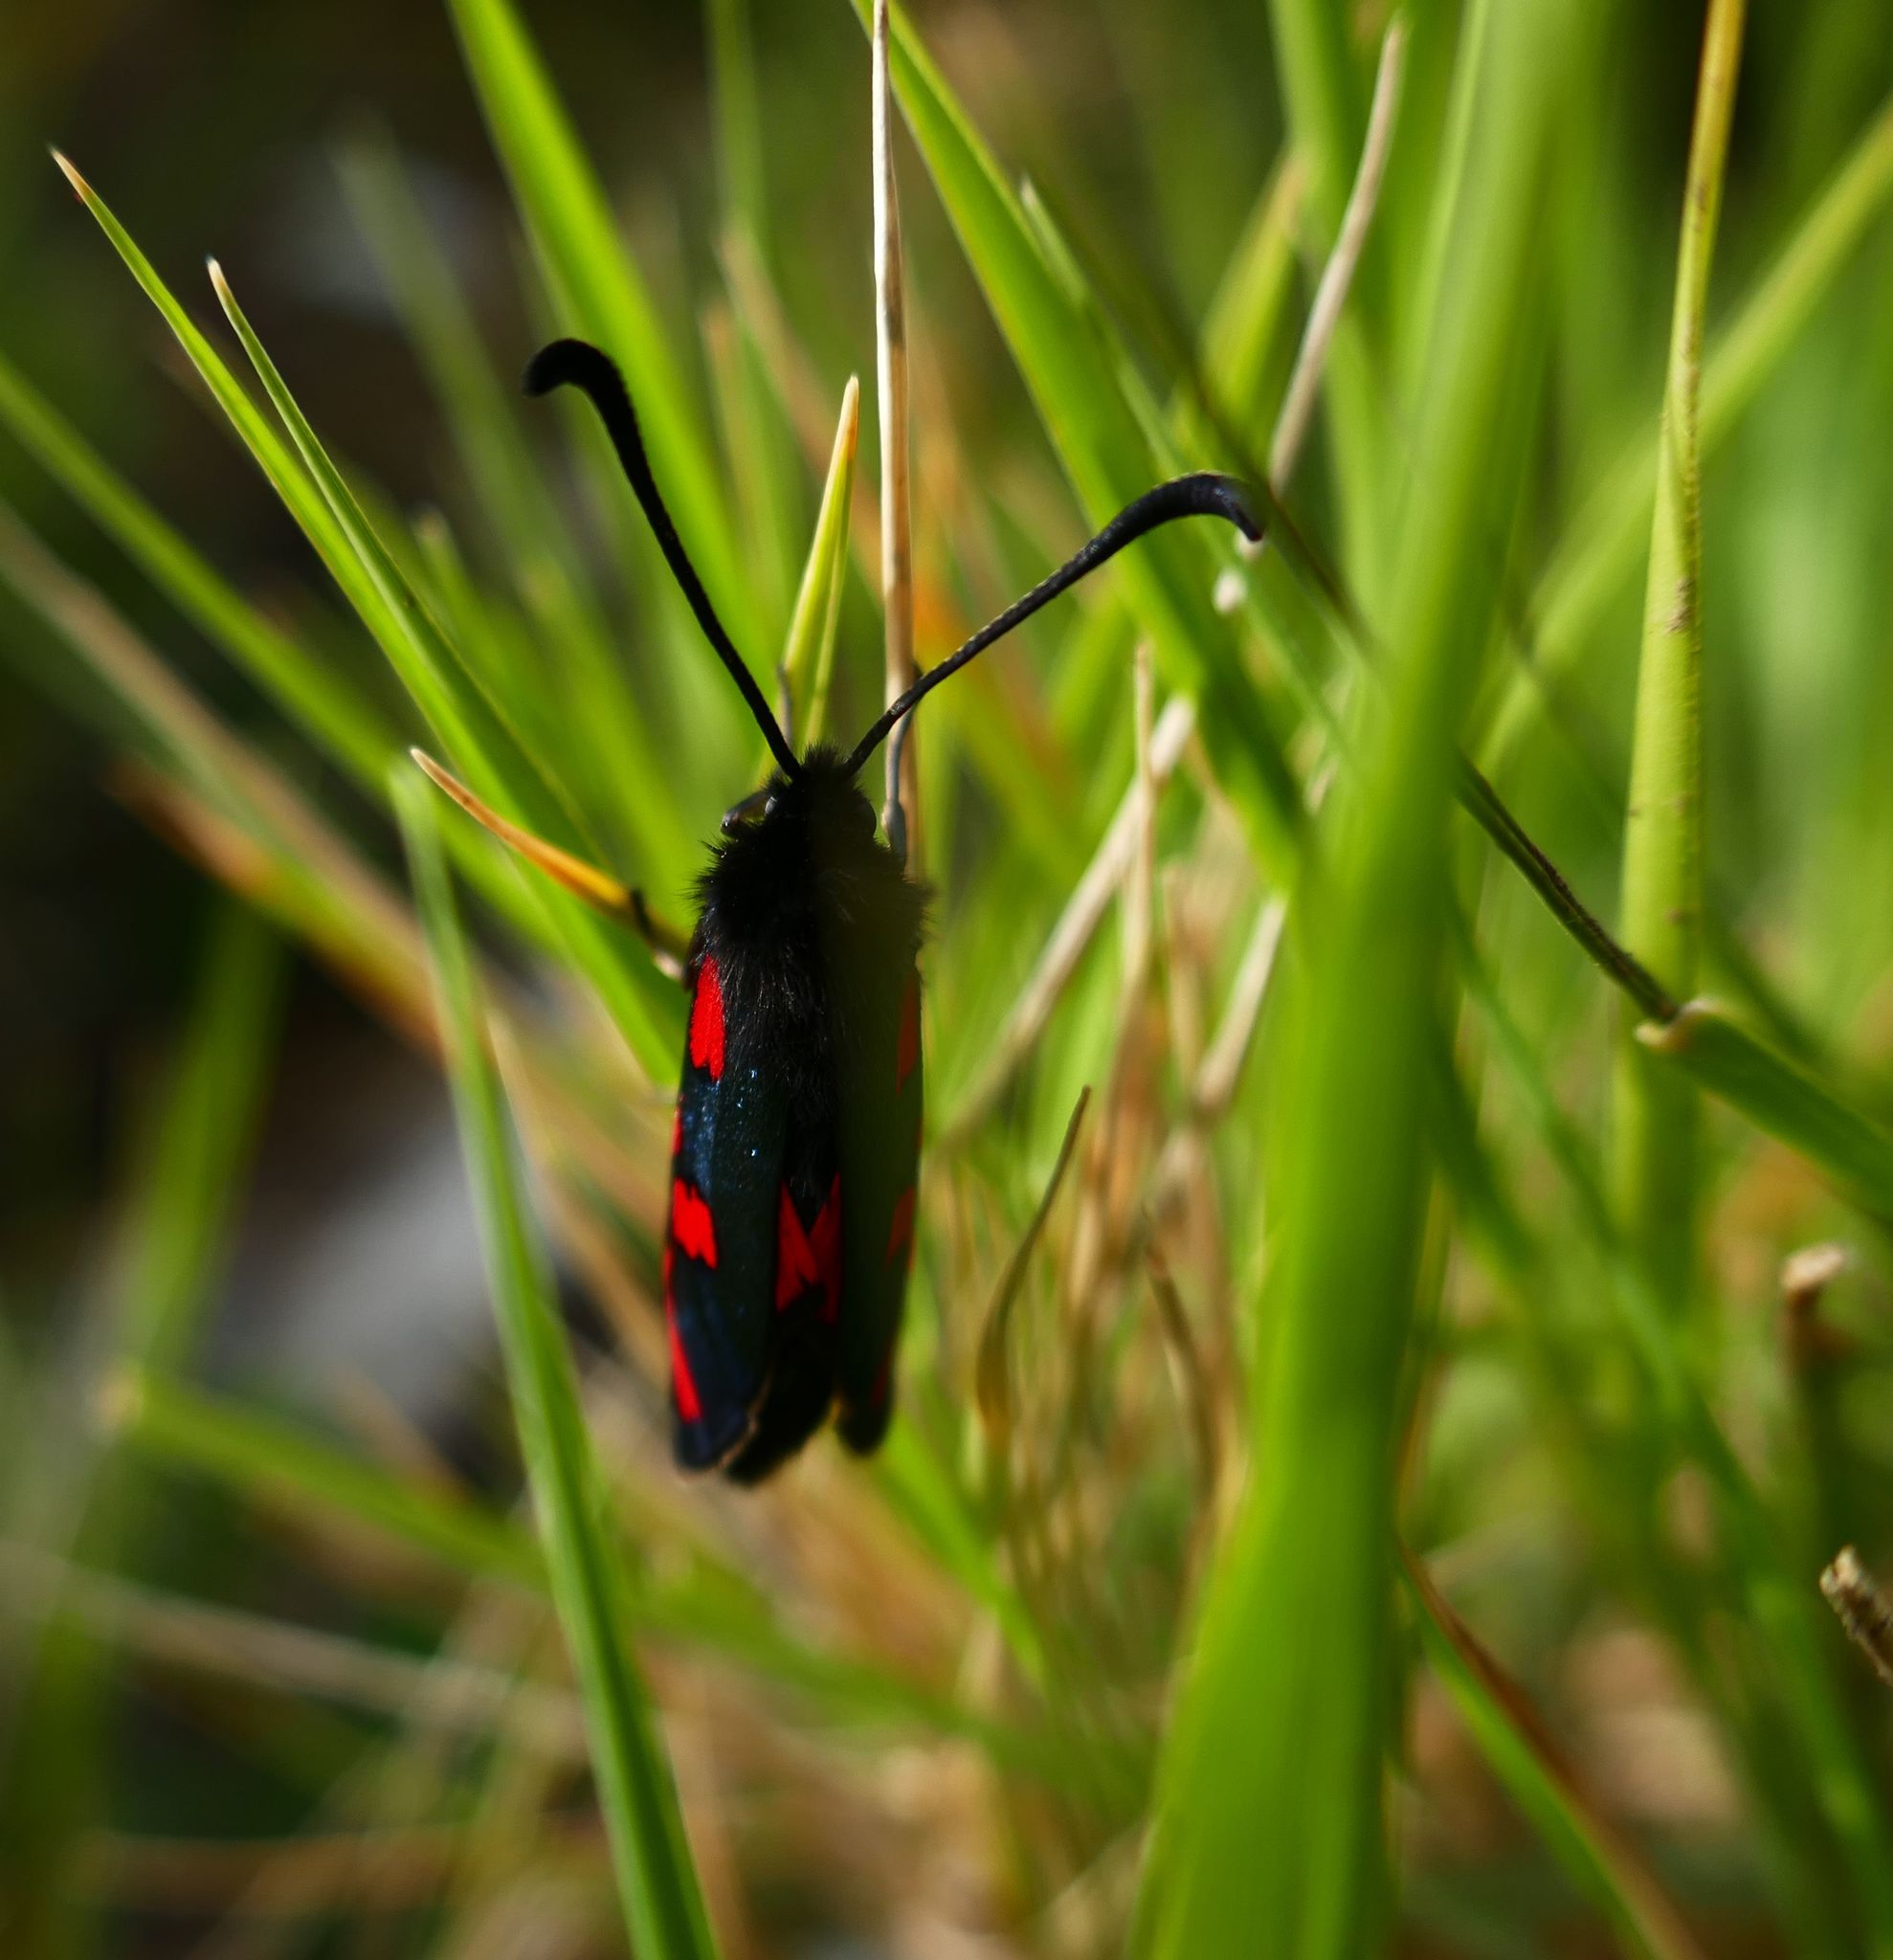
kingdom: Animalia
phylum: Arthropoda
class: Insecta
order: Lepidoptera
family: Zygaenidae
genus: Zygaena
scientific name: Zygaena oxytropis
